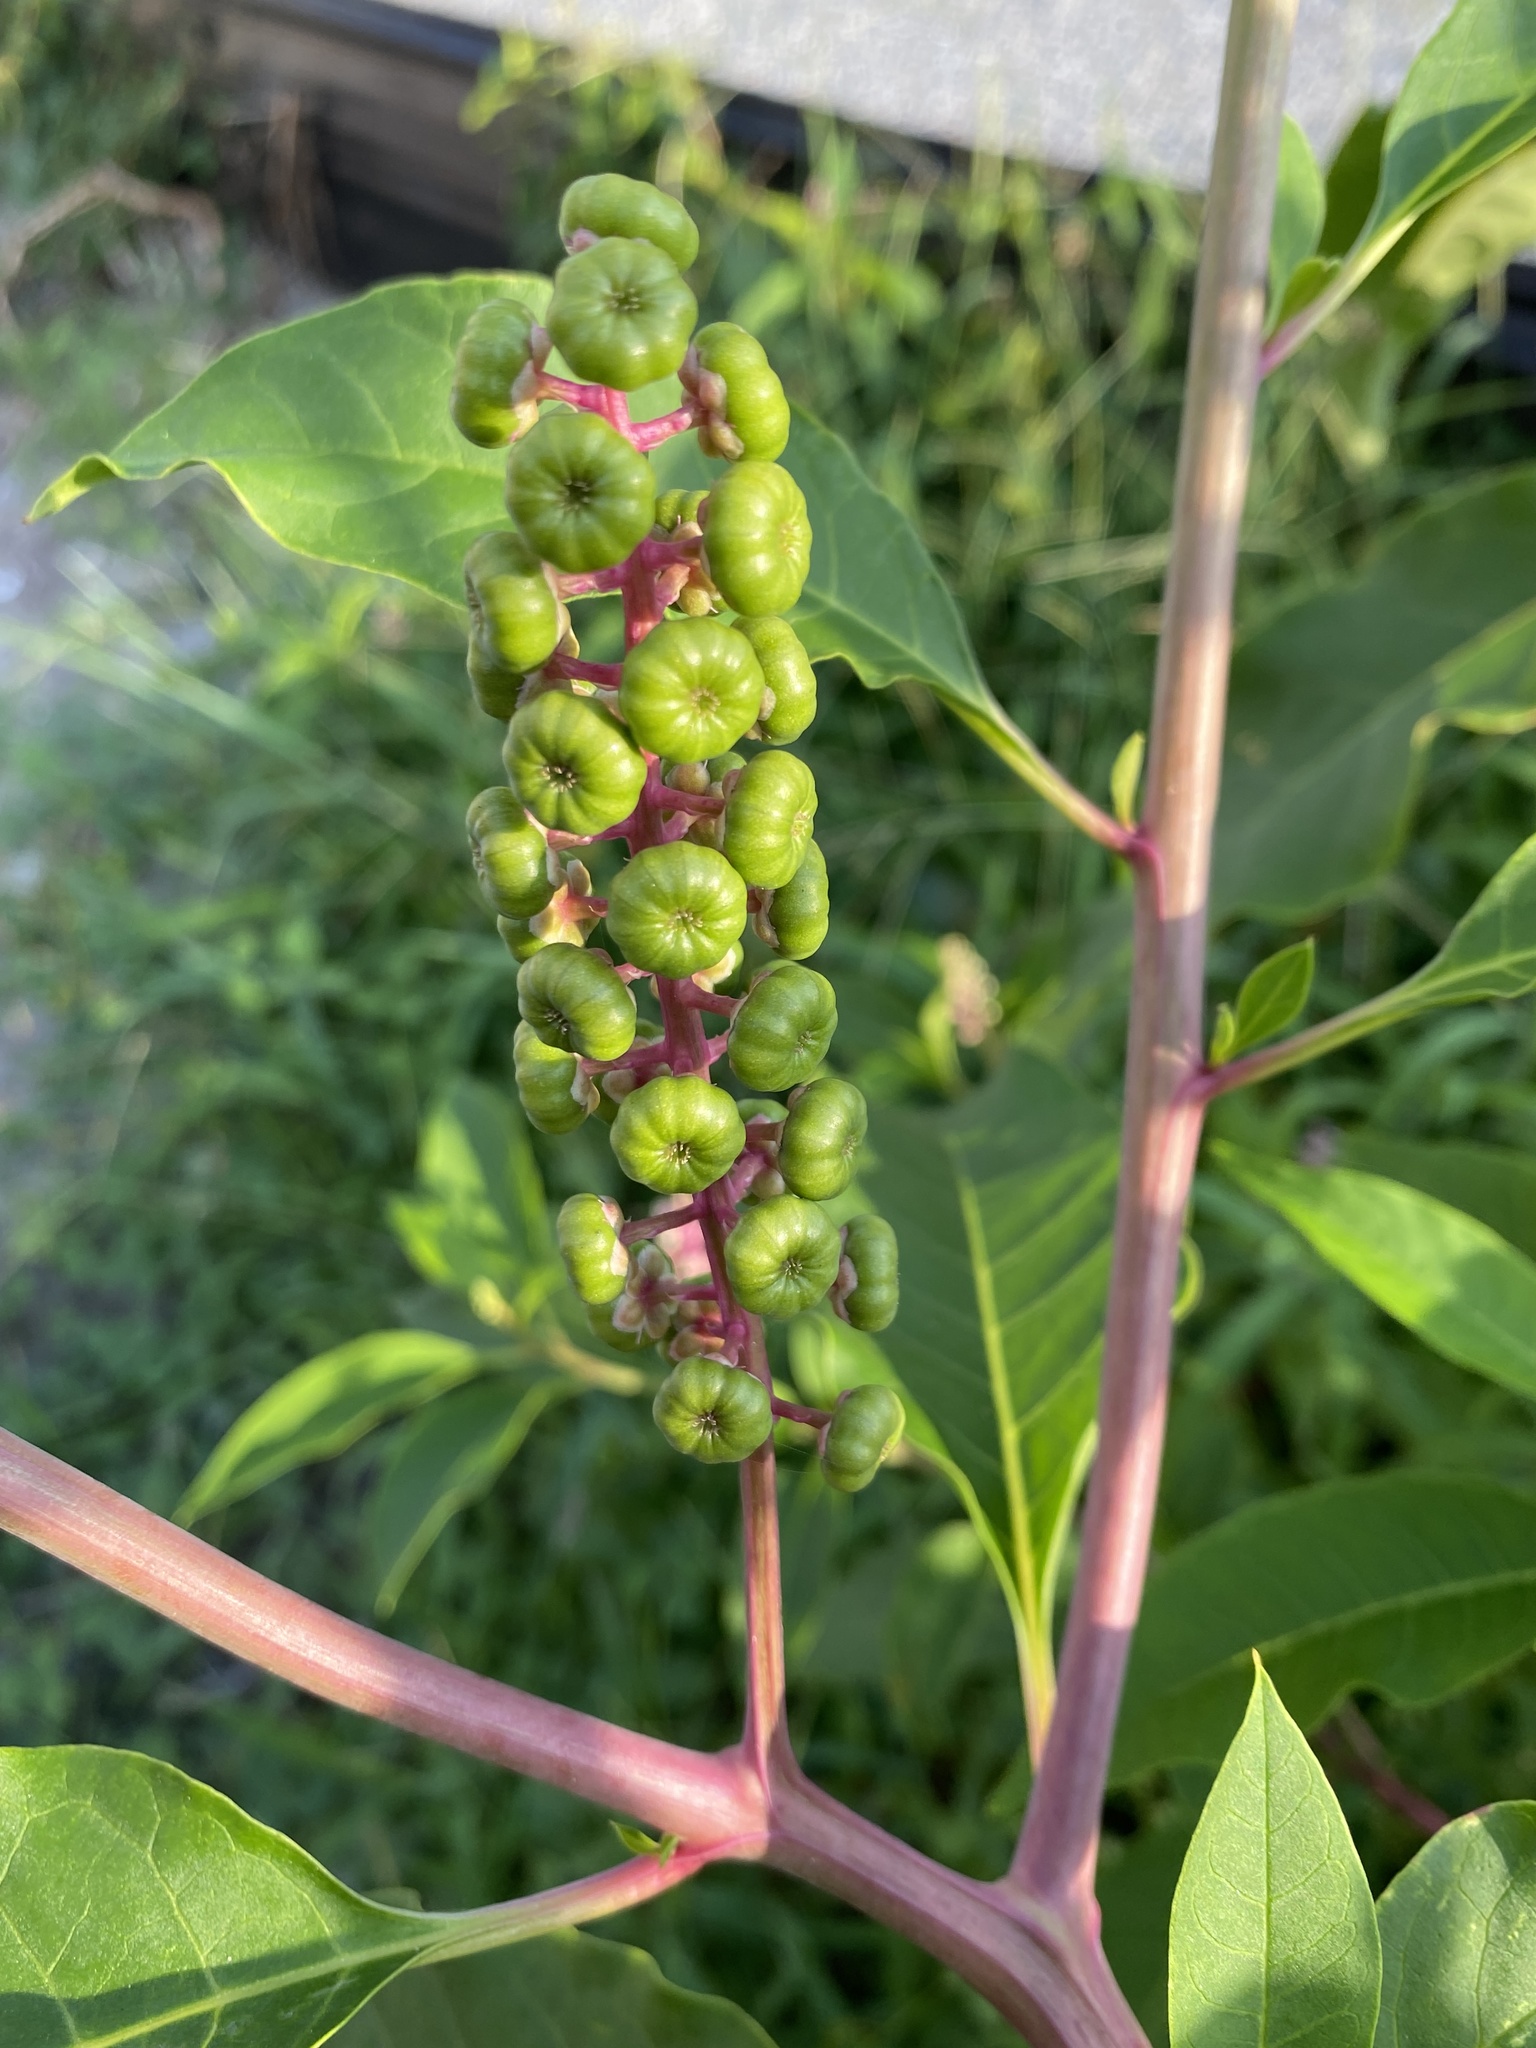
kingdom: Plantae
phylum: Tracheophyta
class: Magnoliopsida
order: Caryophyllales
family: Phytolaccaceae
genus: Phytolacca
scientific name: Phytolacca americana
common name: American pokeweed
